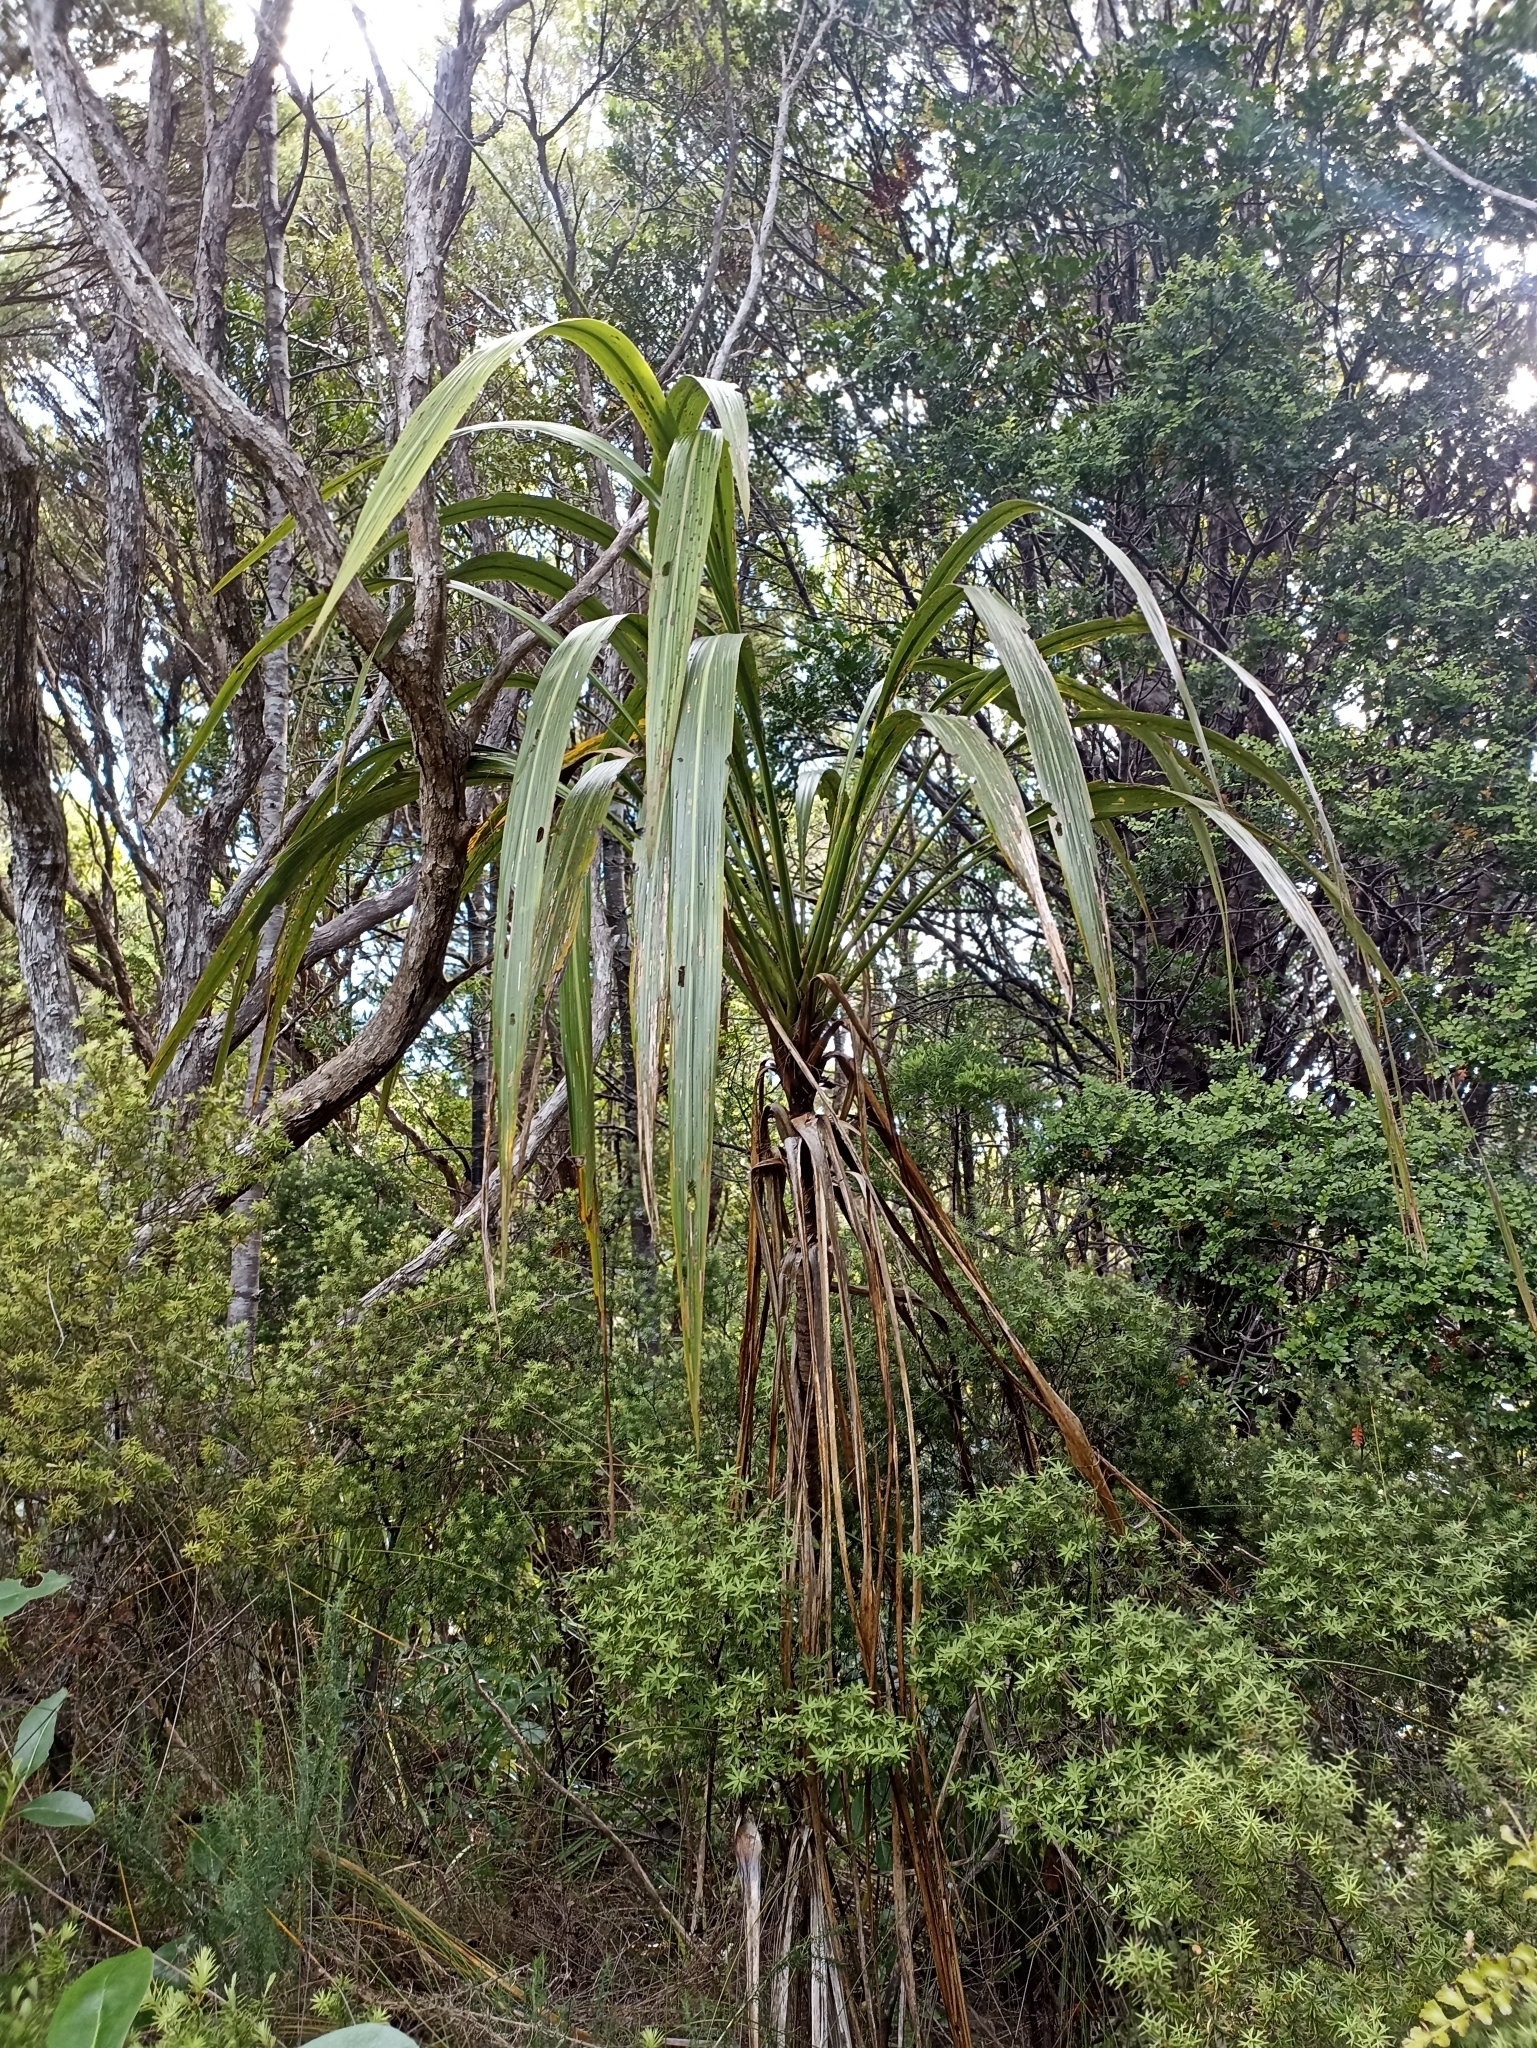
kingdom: Plantae
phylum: Tracheophyta
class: Liliopsida
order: Asparagales
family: Asparagaceae
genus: Cordyline
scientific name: Cordyline banksii
